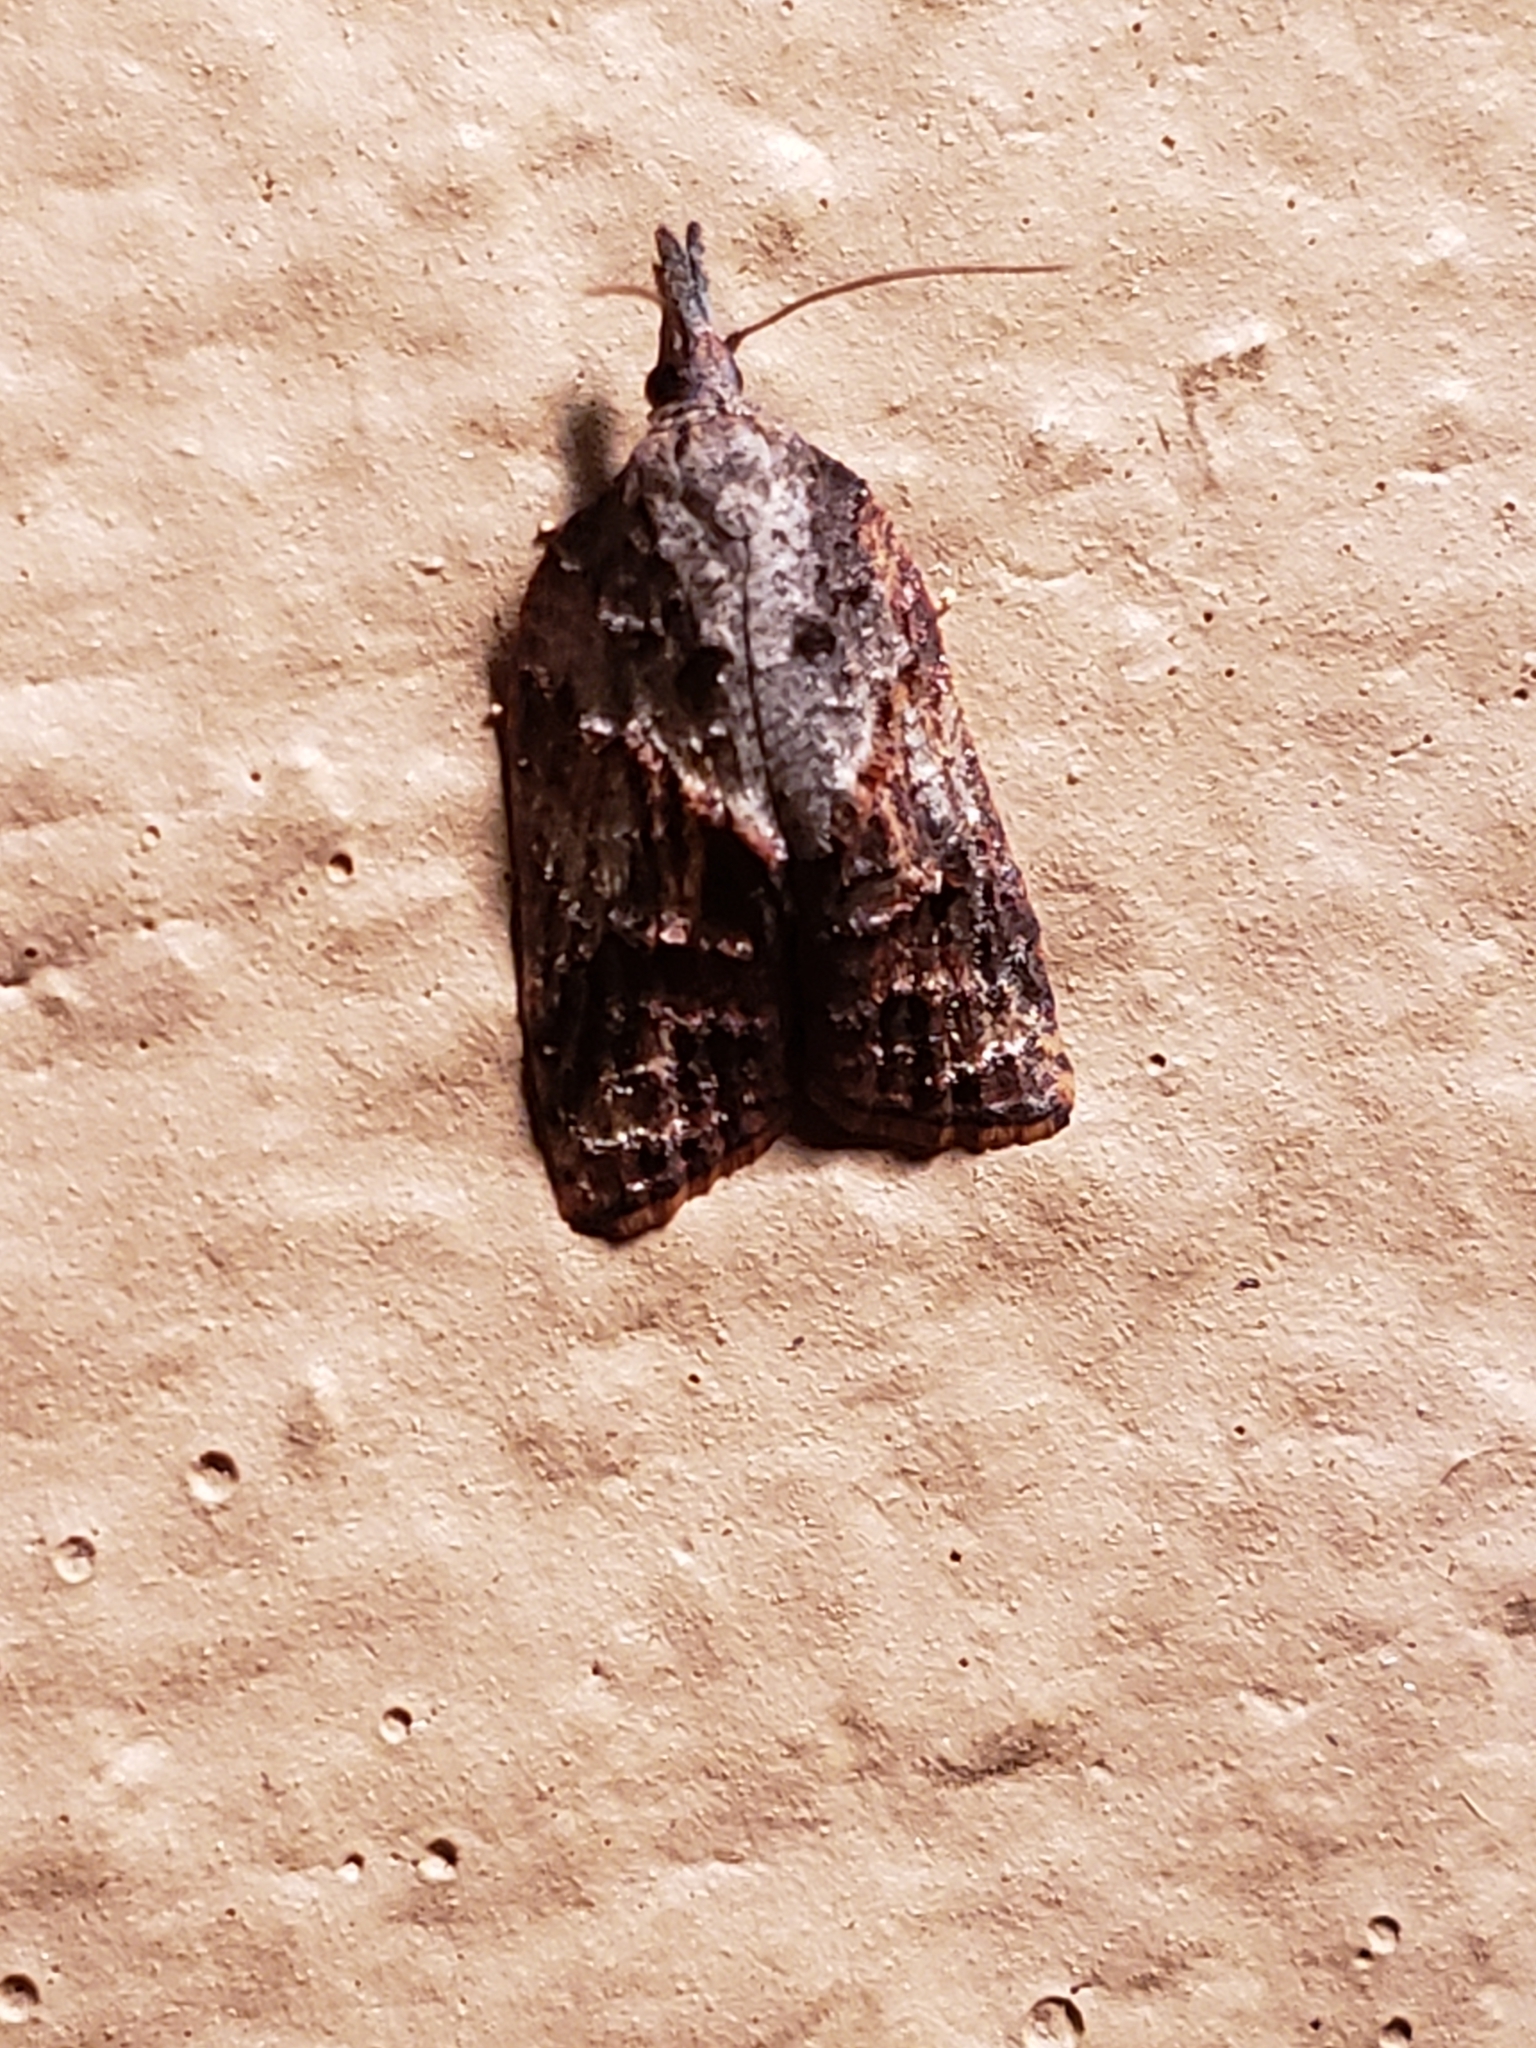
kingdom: Animalia
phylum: Arthropoda
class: Insecta
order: Lepidoptera
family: Tortricidae
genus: Platynota
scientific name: Platynota idaeusalis
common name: Tufted apple bud moth
